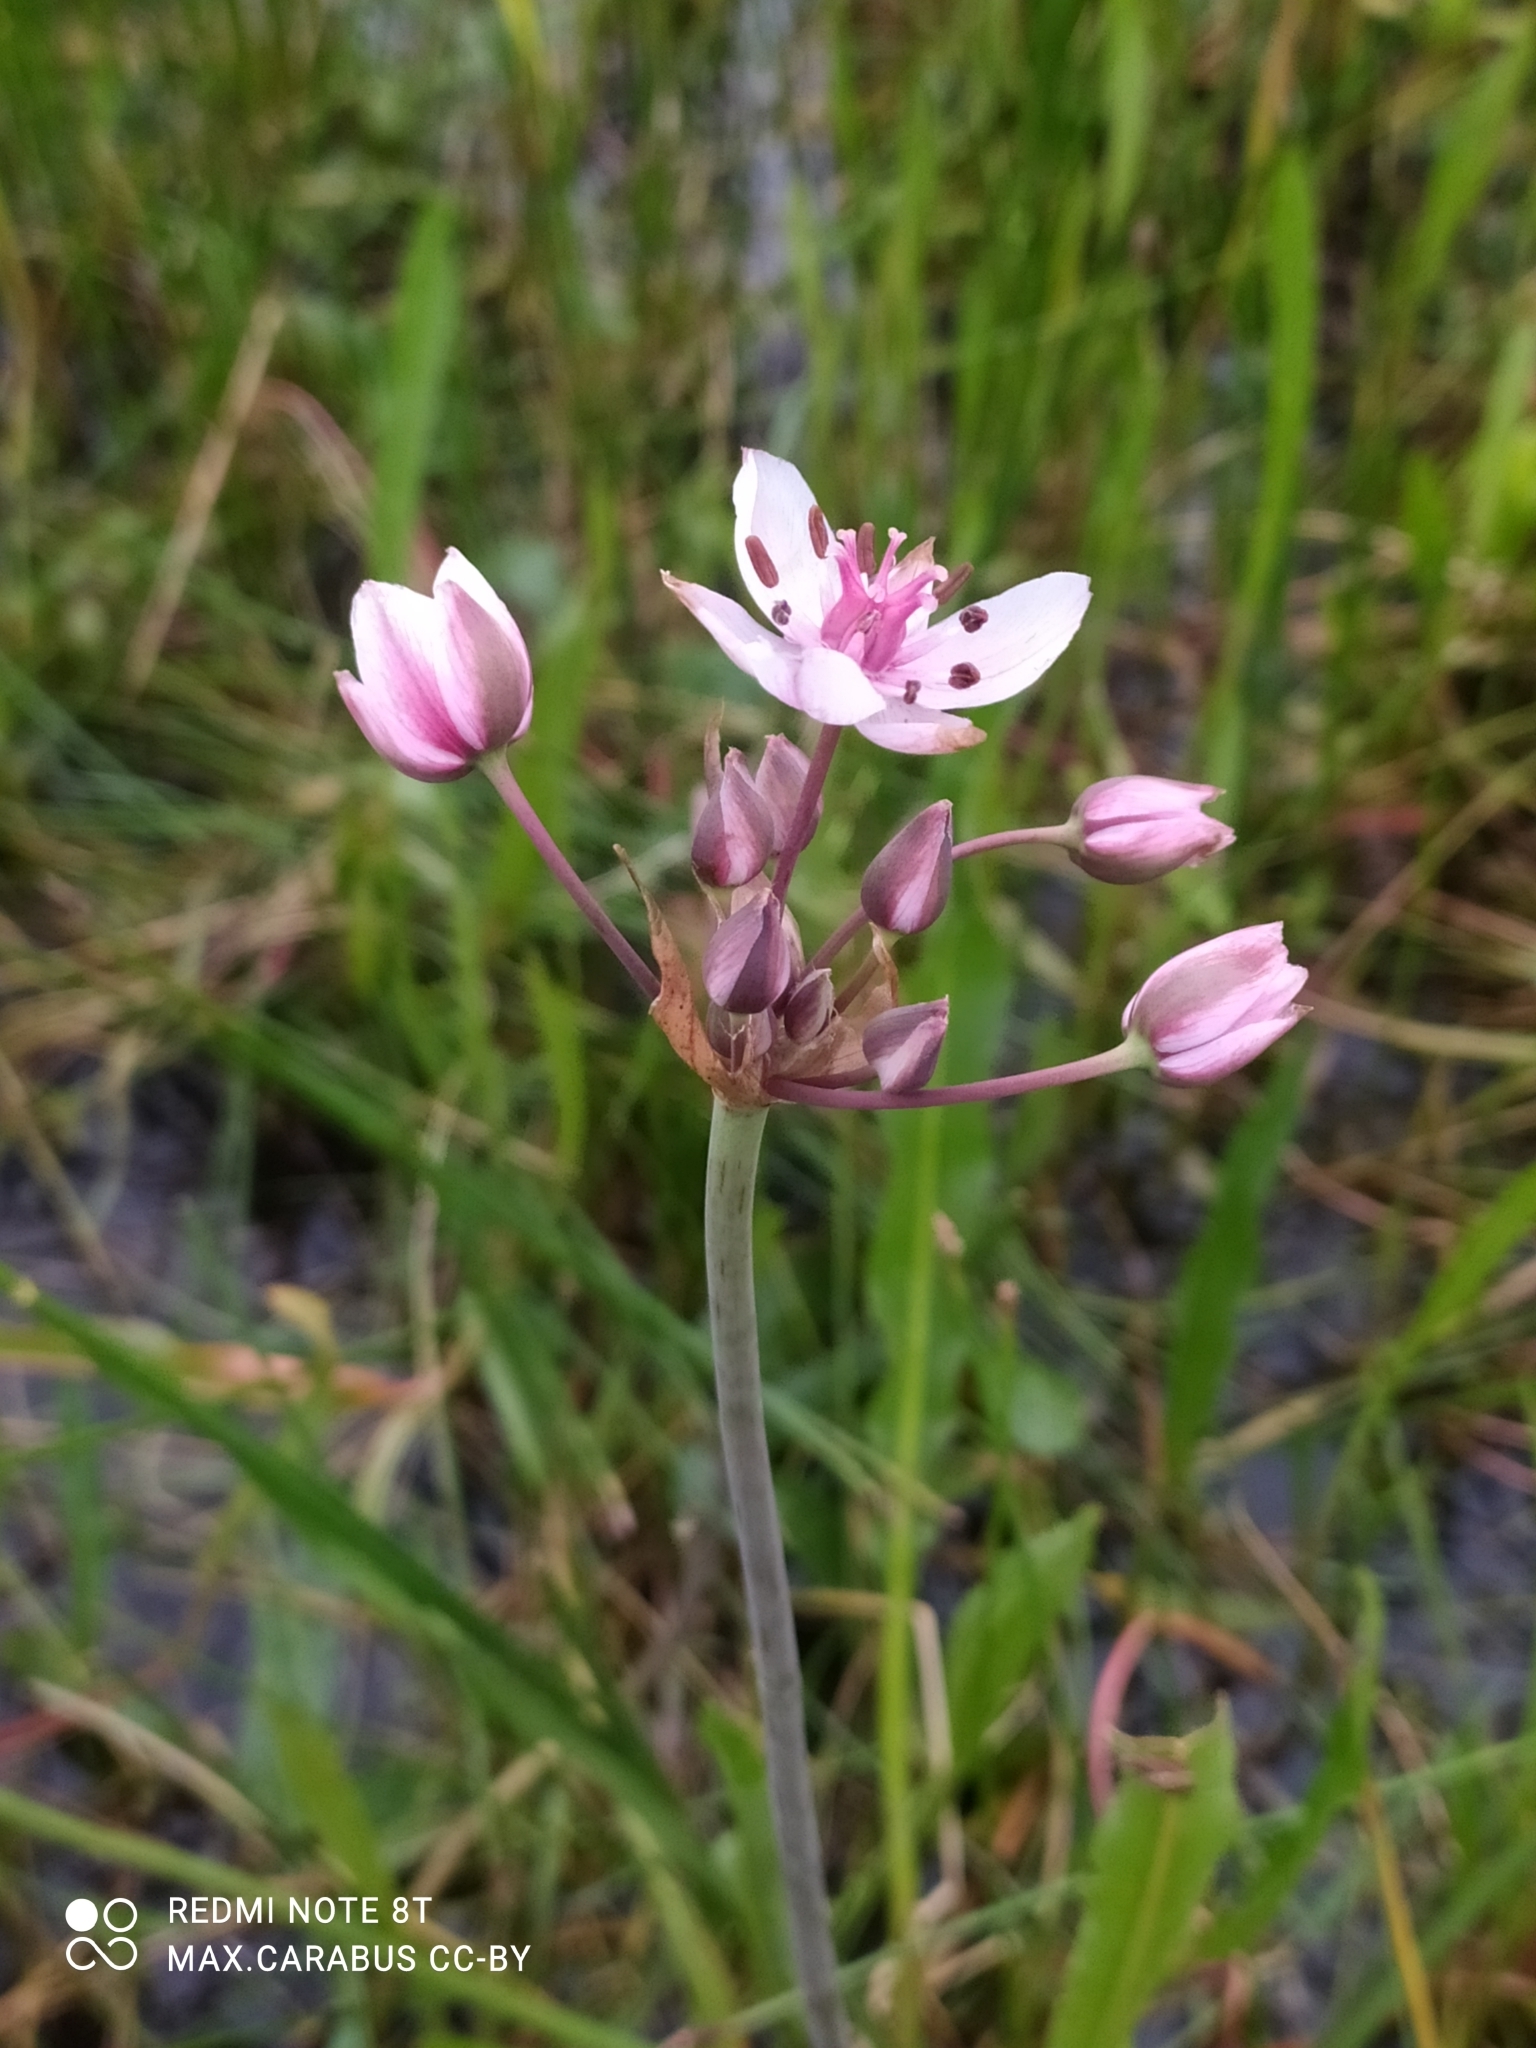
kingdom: Plantae
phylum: Tracheophyta
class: Liliopsida
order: Alismatales
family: Butomaceae
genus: Butomus
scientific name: Butomus umbellatus
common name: Flowering-rush
